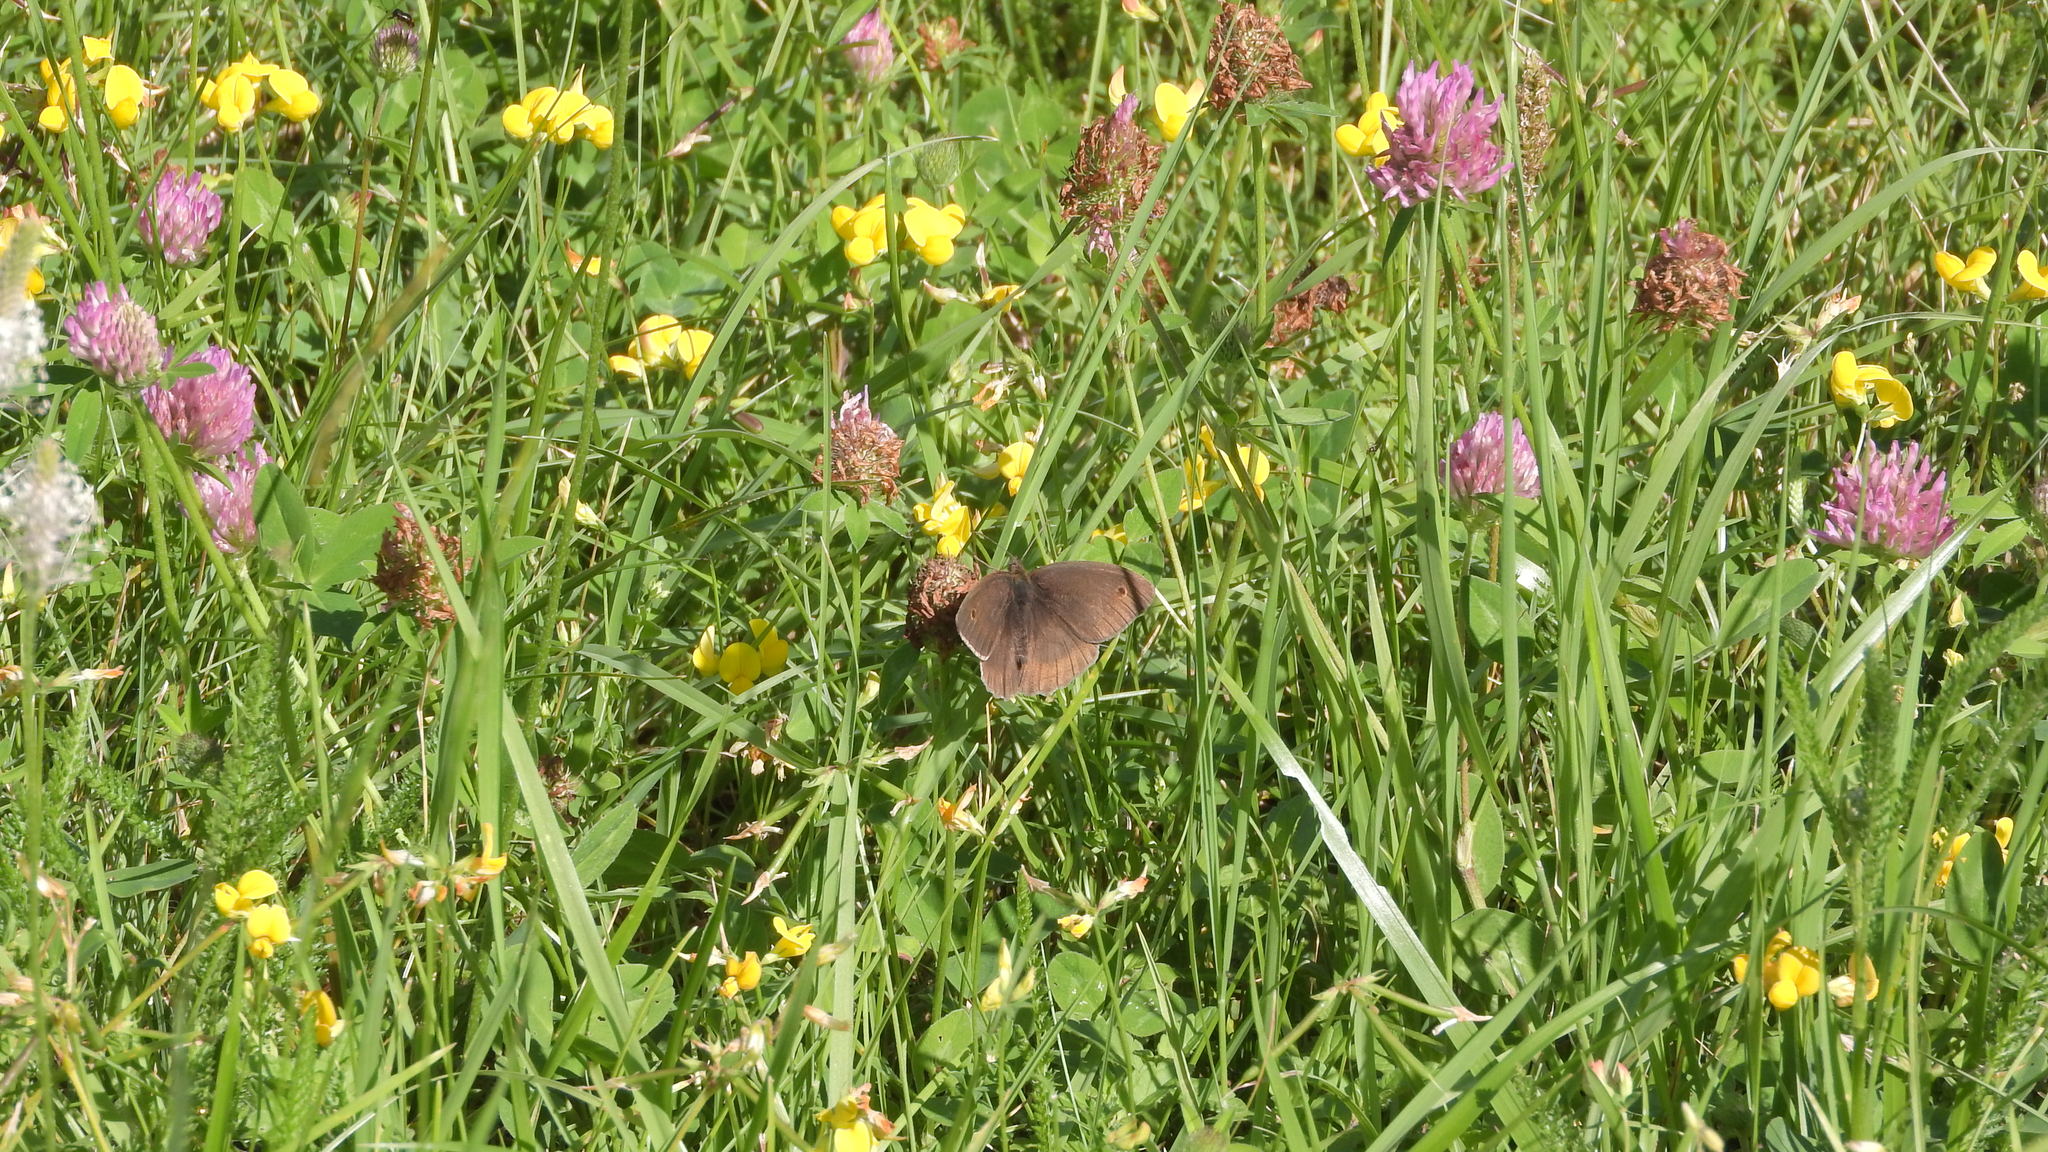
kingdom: Animalia
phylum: Arthropoda
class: Insecta
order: Lepidoptera
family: Nymphalidae
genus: Maniola
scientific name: Maniola jurtina
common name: Meadow brown
